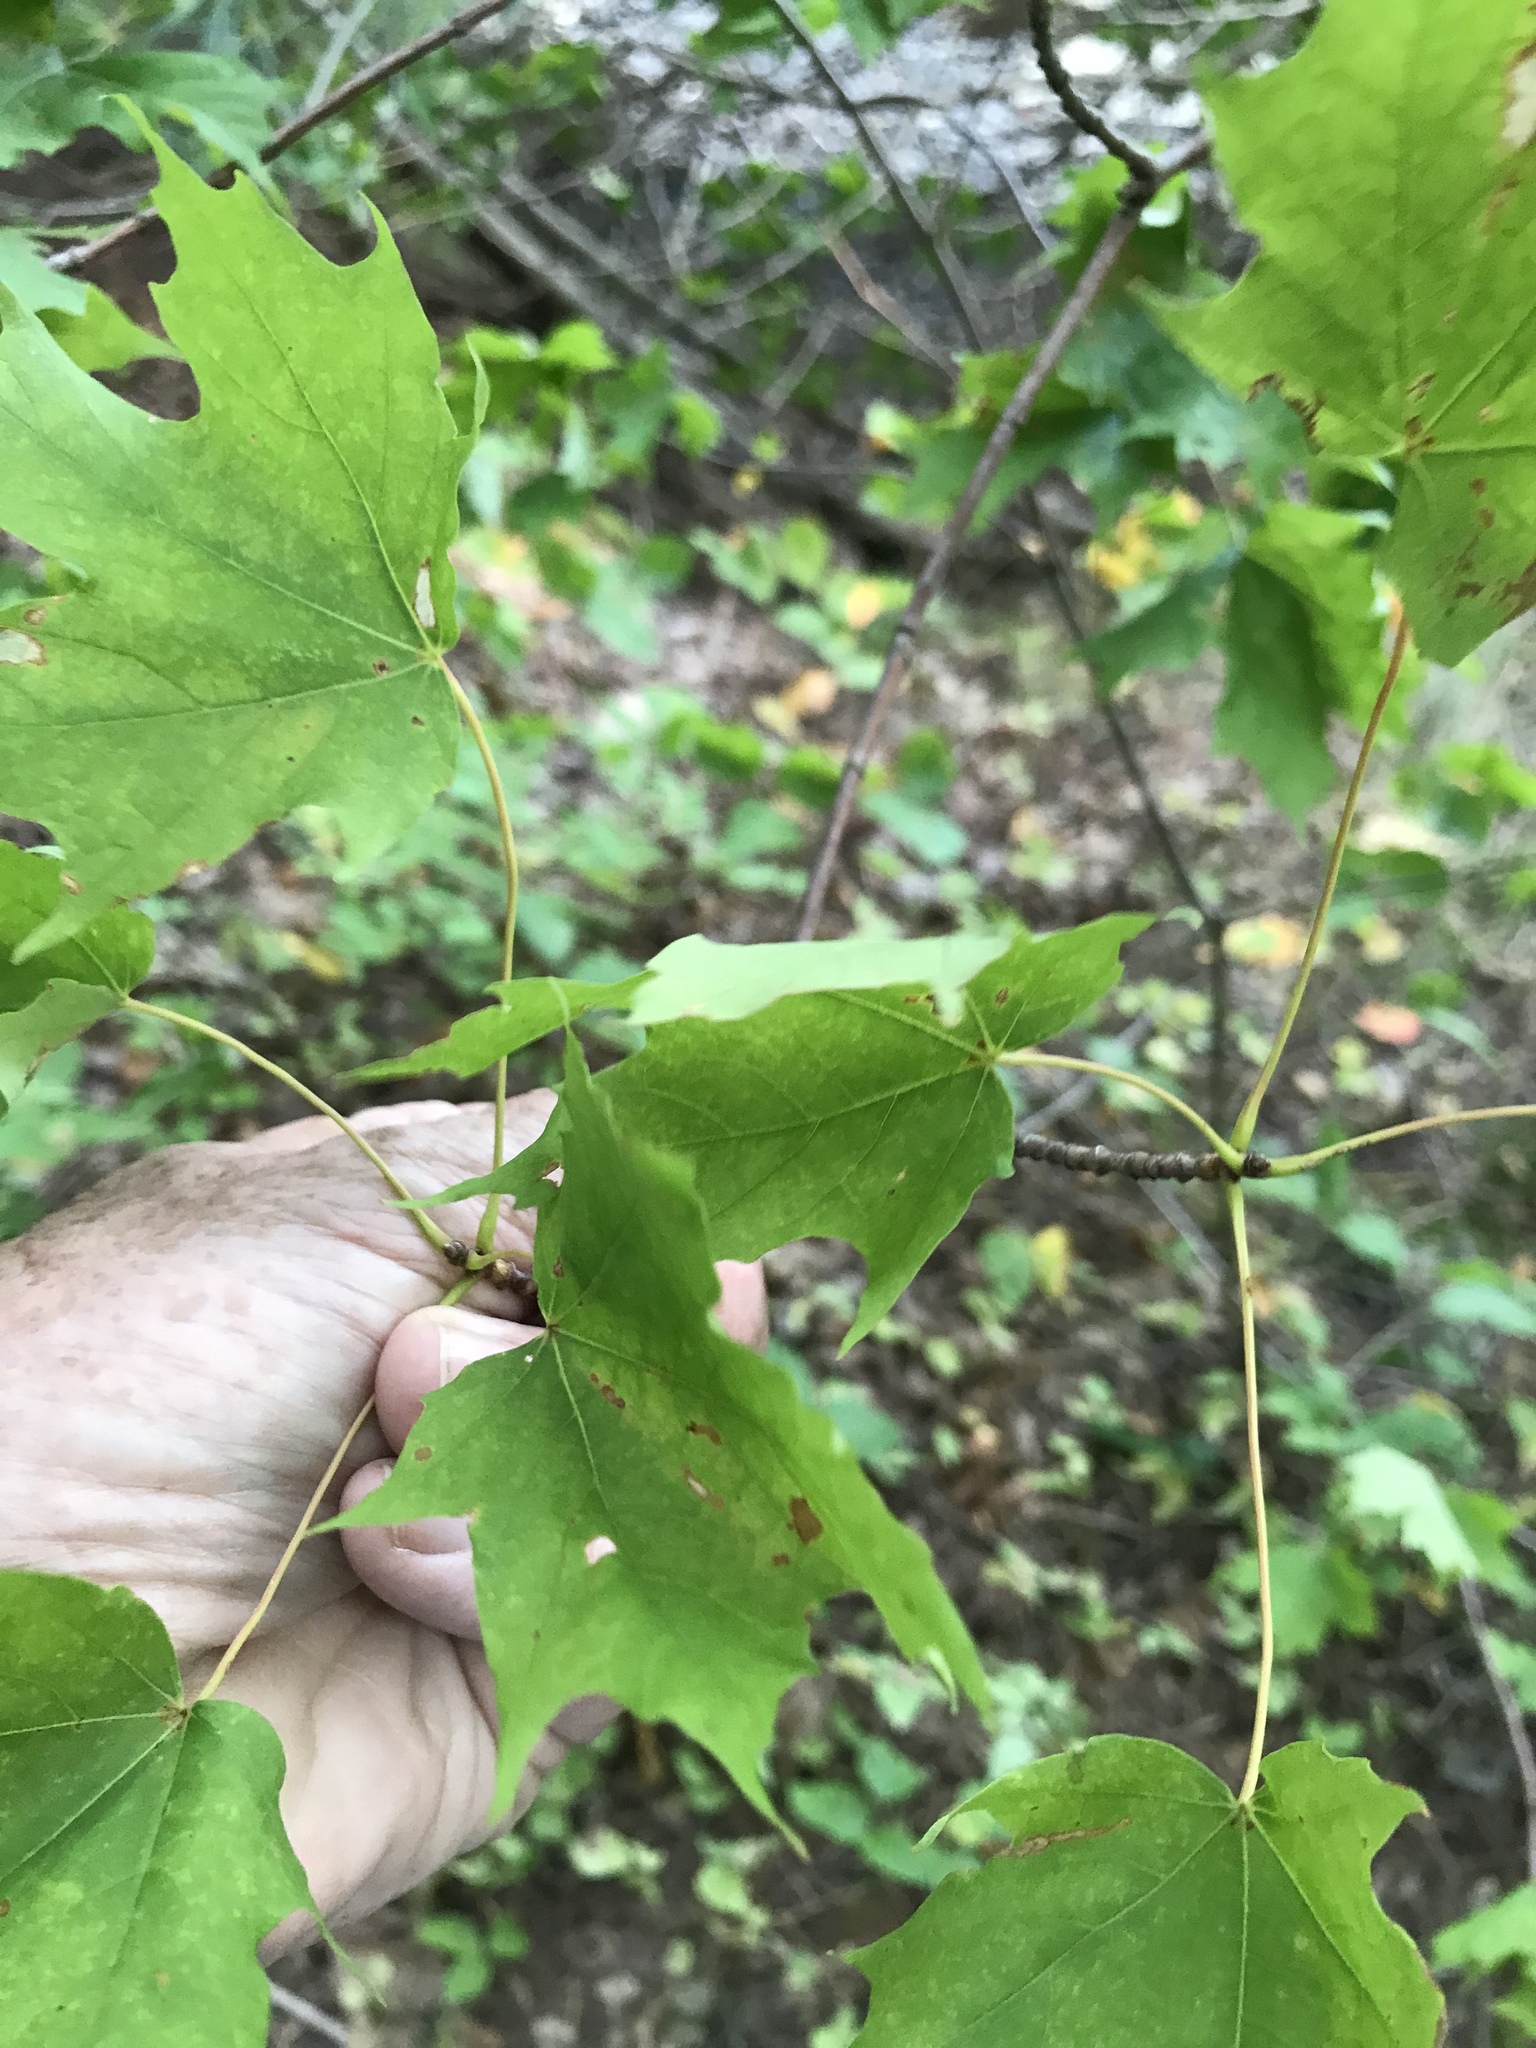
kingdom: Plantae
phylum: Tracheophyta
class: Magnoliopsida
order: Sapindales
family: Sapindaceae
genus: Acer
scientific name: Acer saccharum
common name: Sugar maple
